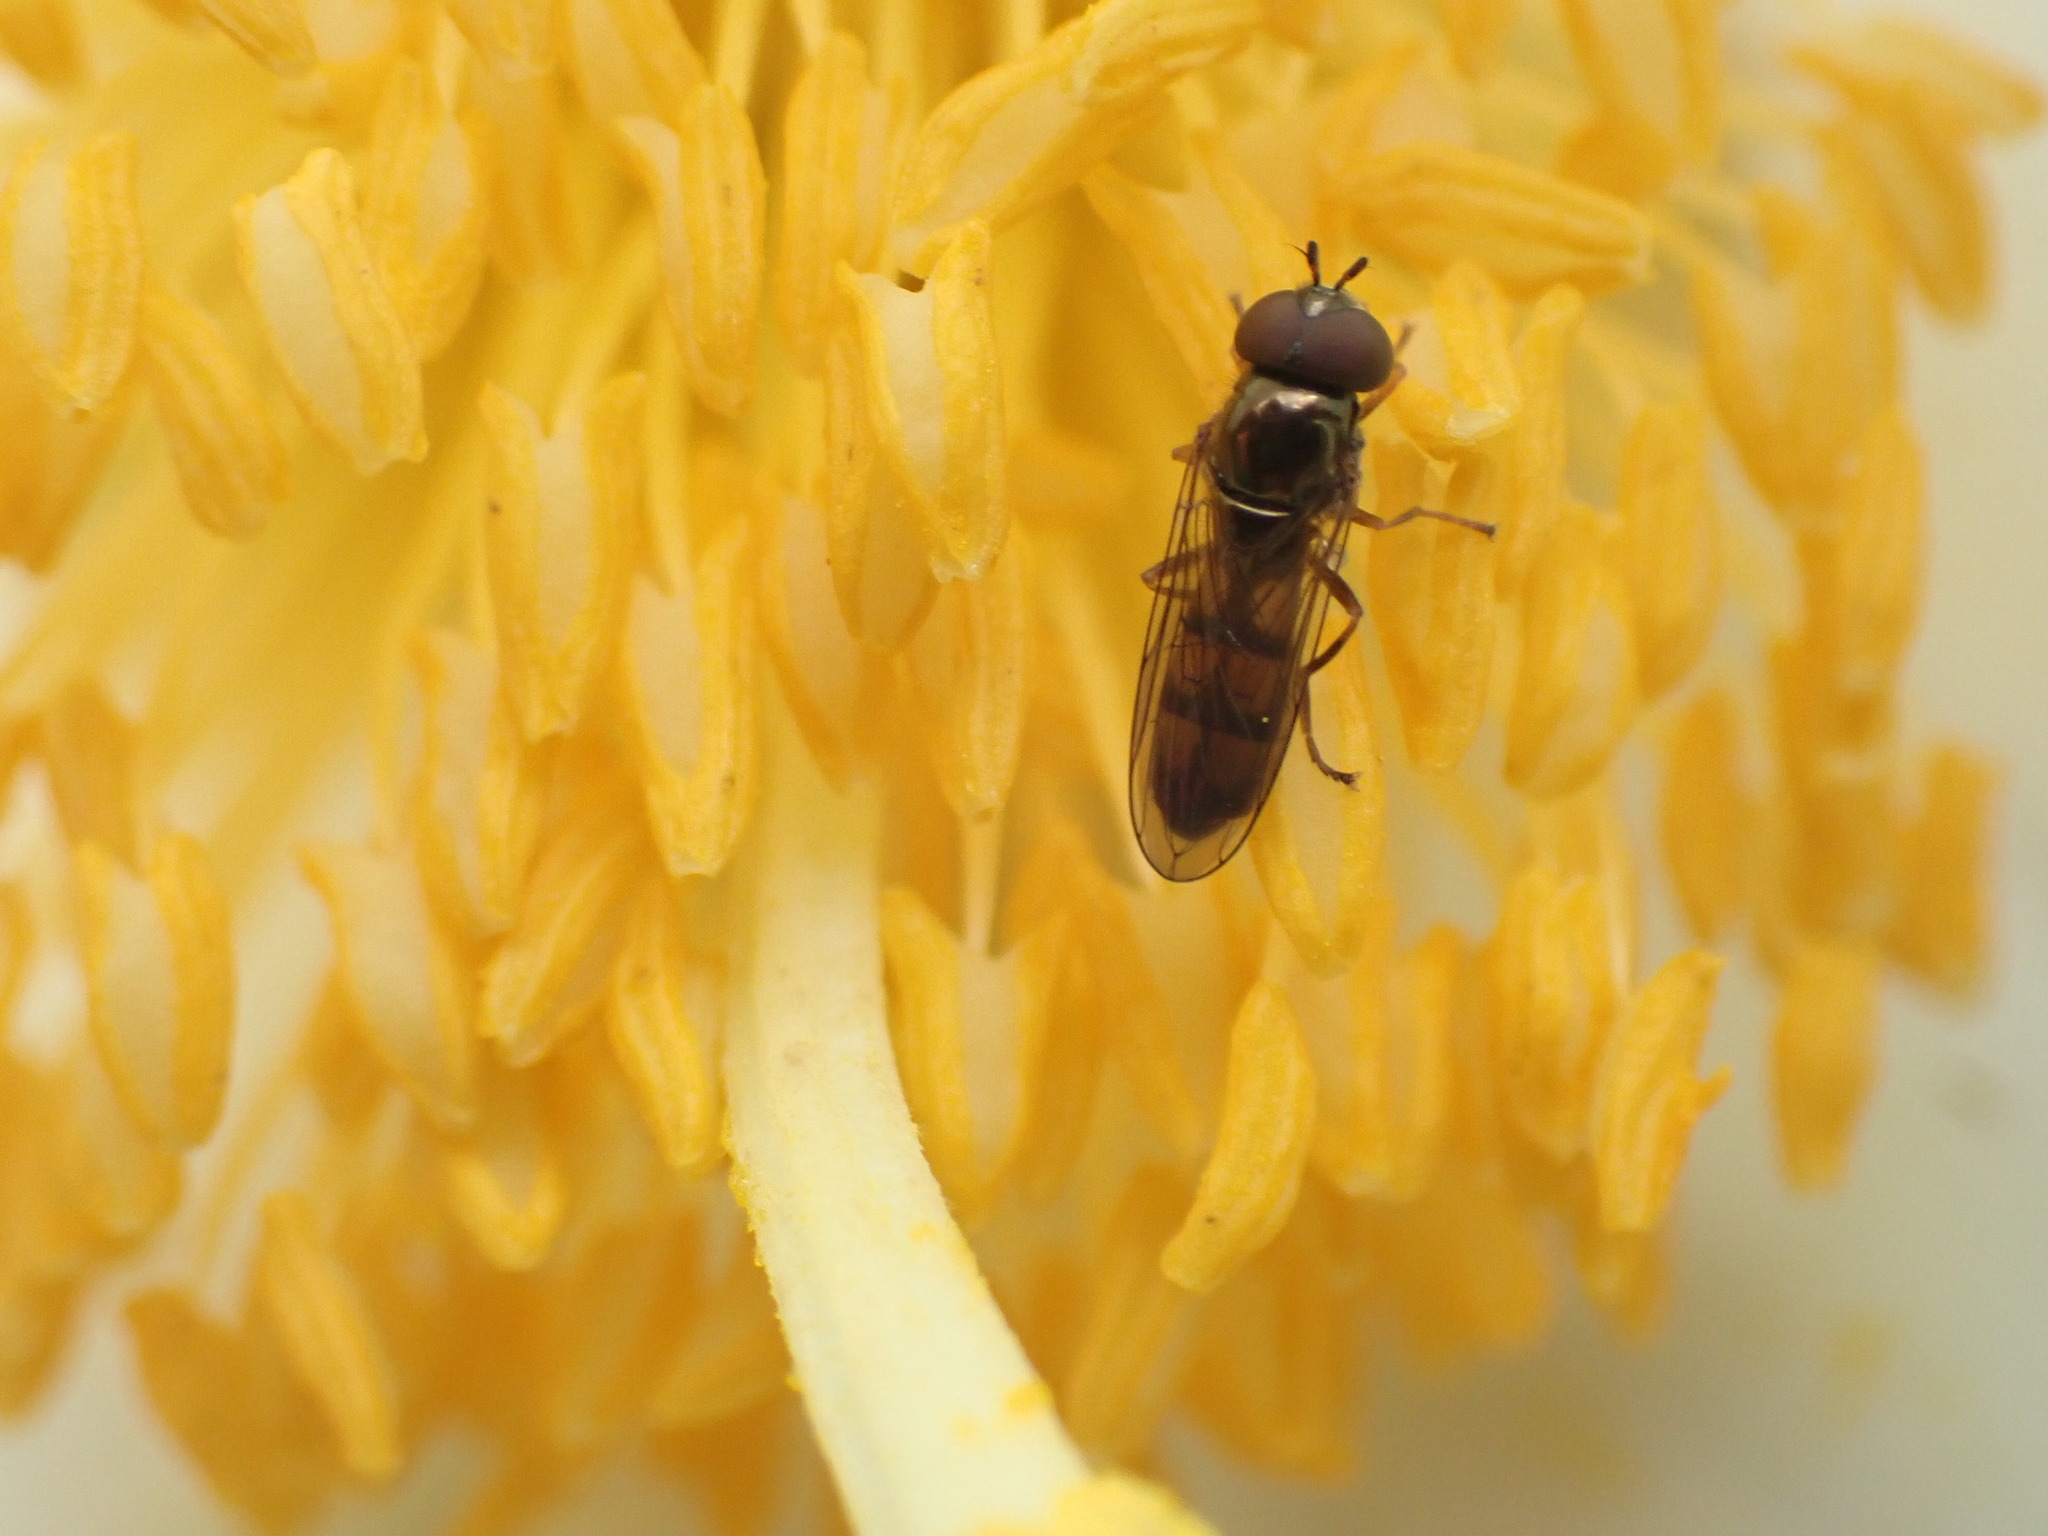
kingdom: Animalia
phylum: Arthropoda
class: Insecta
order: Diptera
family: Syrphidae
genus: Melanostoma
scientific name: Melanostoma fasciatum
